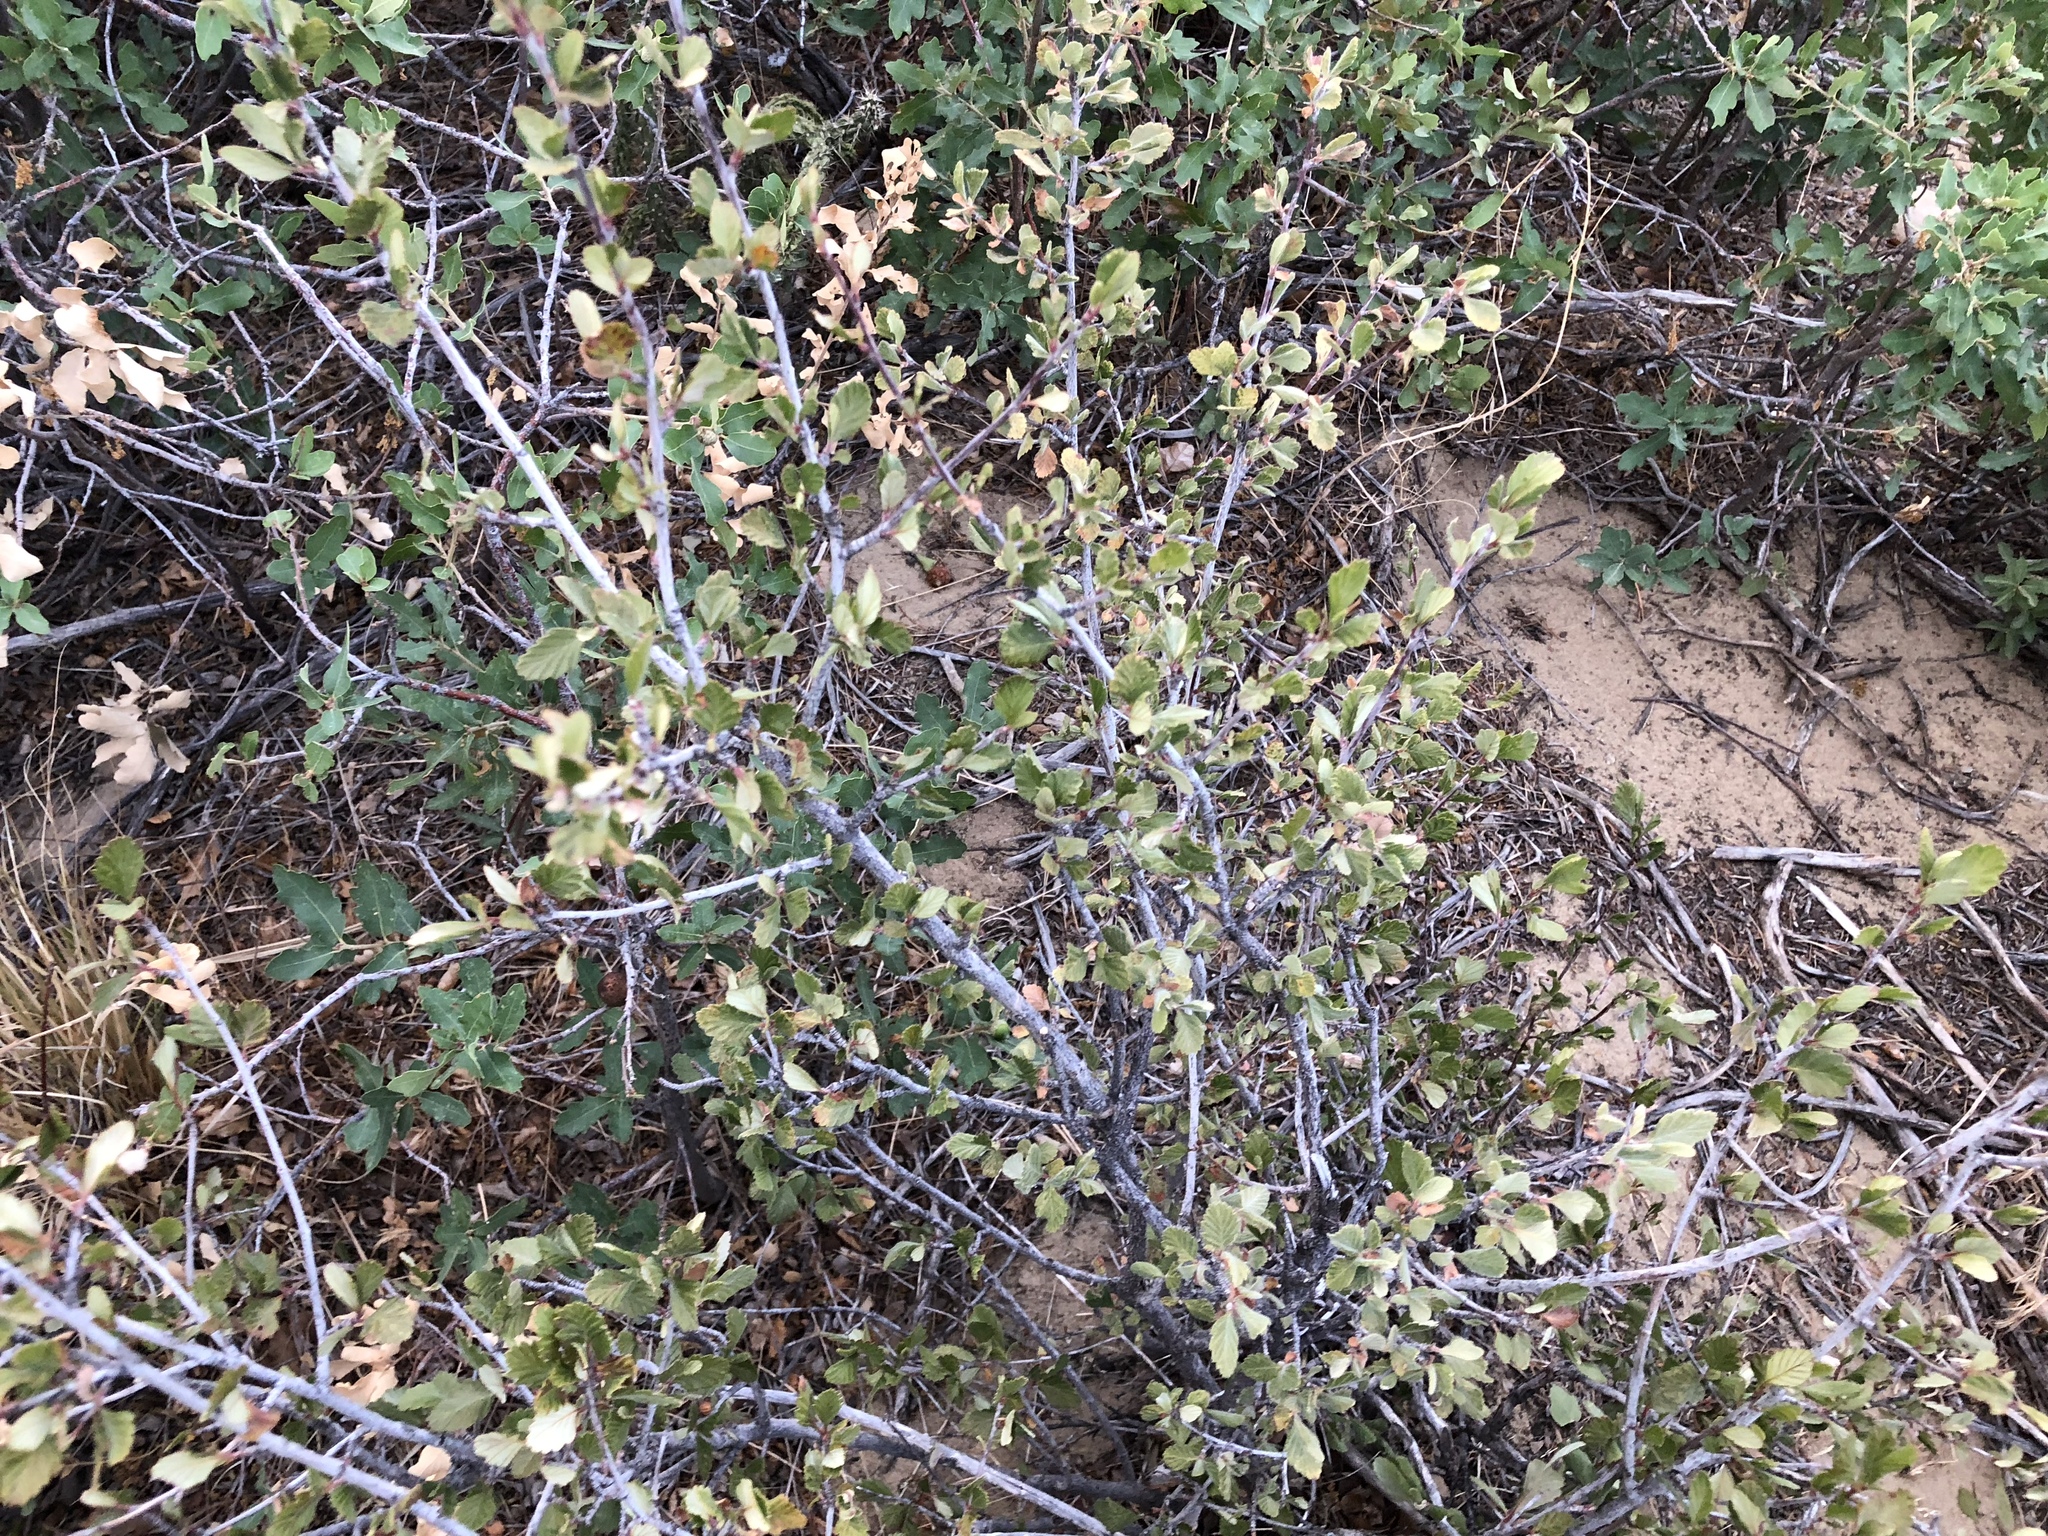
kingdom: Plantae
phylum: Tracheophyta
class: Magnoliopsida
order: Rosales
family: Rosaceae
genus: Cercocarpus
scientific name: Cercocarpus montanus
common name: Alder-leaf cercocarpus
